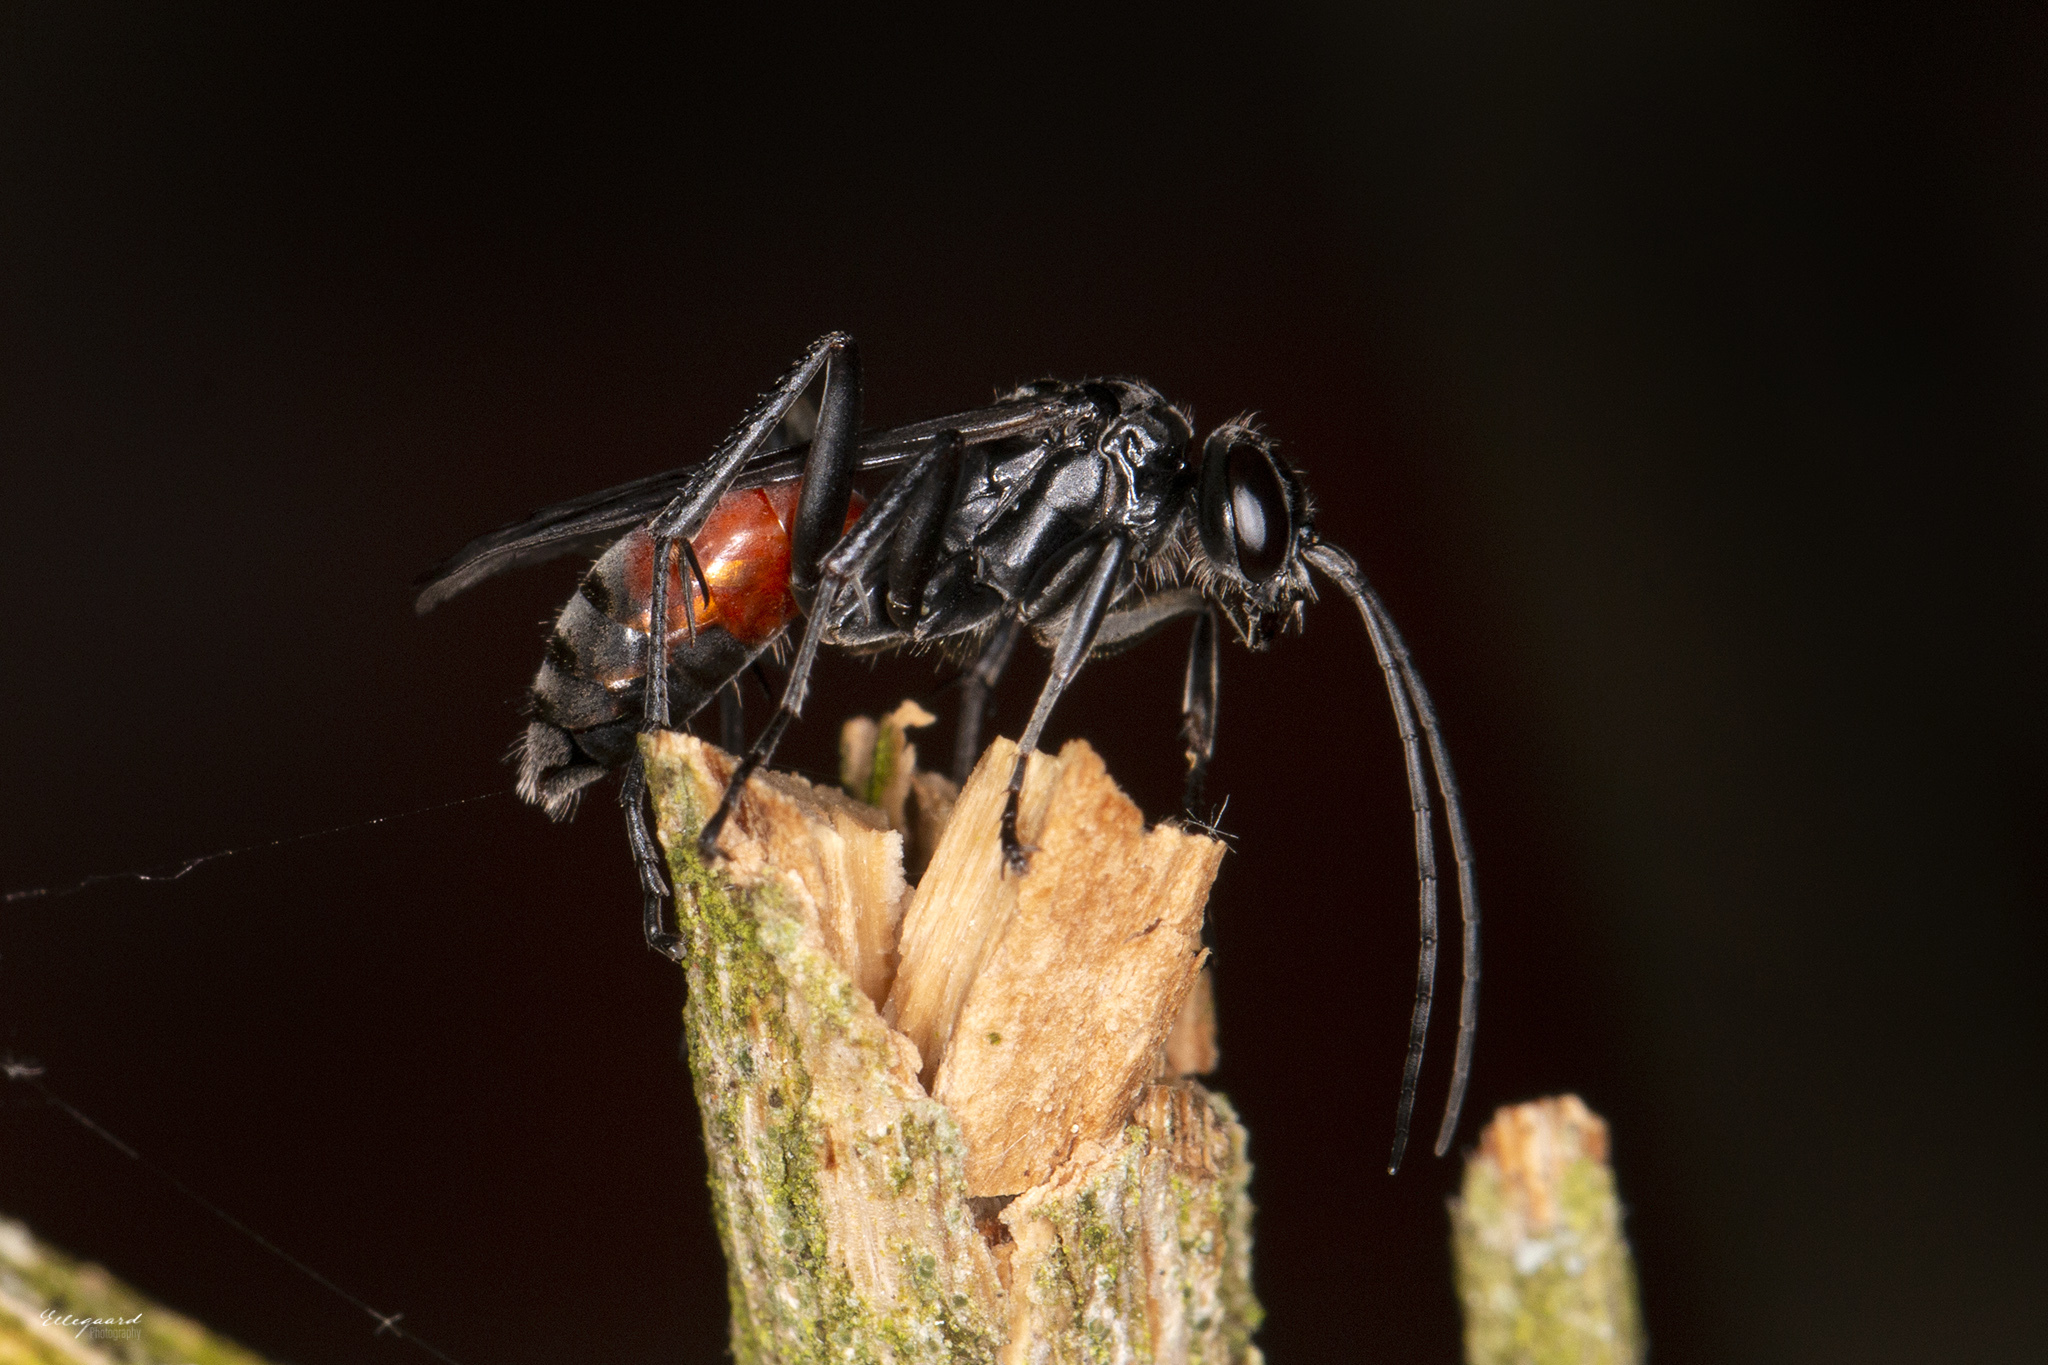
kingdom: Animalia
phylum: Arthropoda
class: Insecta
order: Hymenoptera
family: Pompilidae
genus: Caliadurgus
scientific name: Caliadurgus fasciatellus
